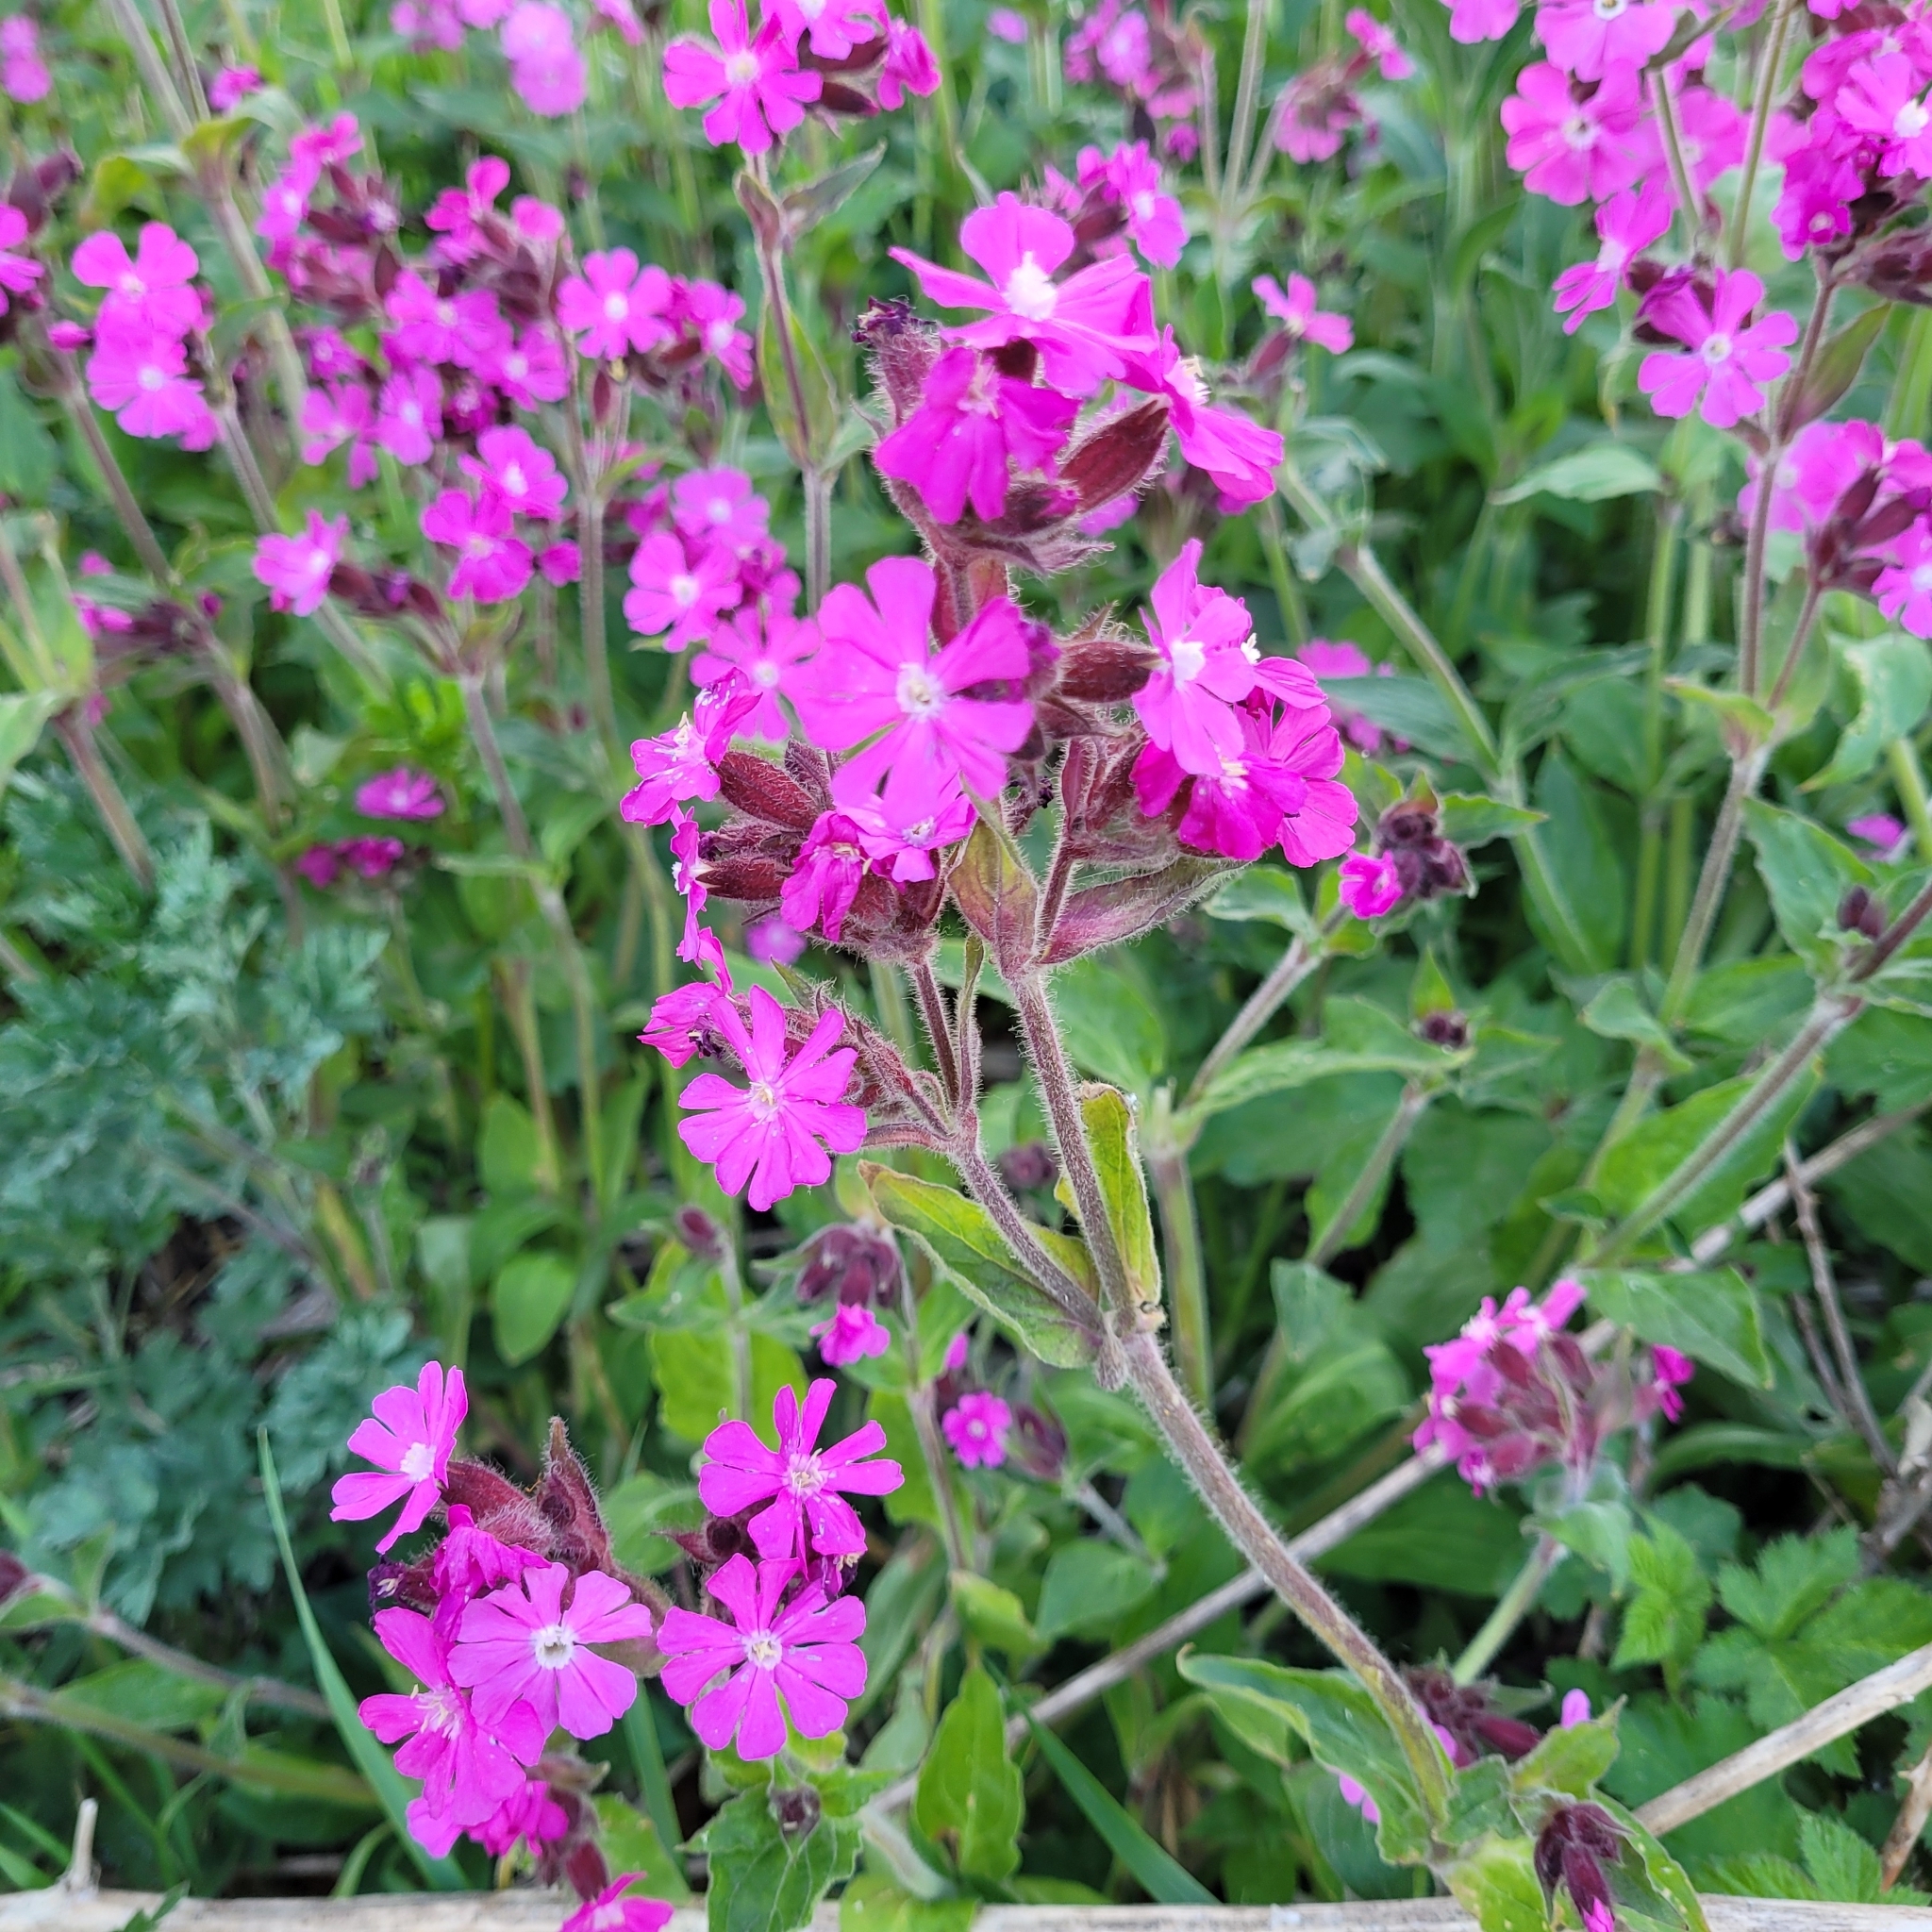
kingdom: Plantae
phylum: Tracheophyta
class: Magnoliopsida
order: Caryophyllales
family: Caryophyllaceae
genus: Silene
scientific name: Silene dioica
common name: Red campion
